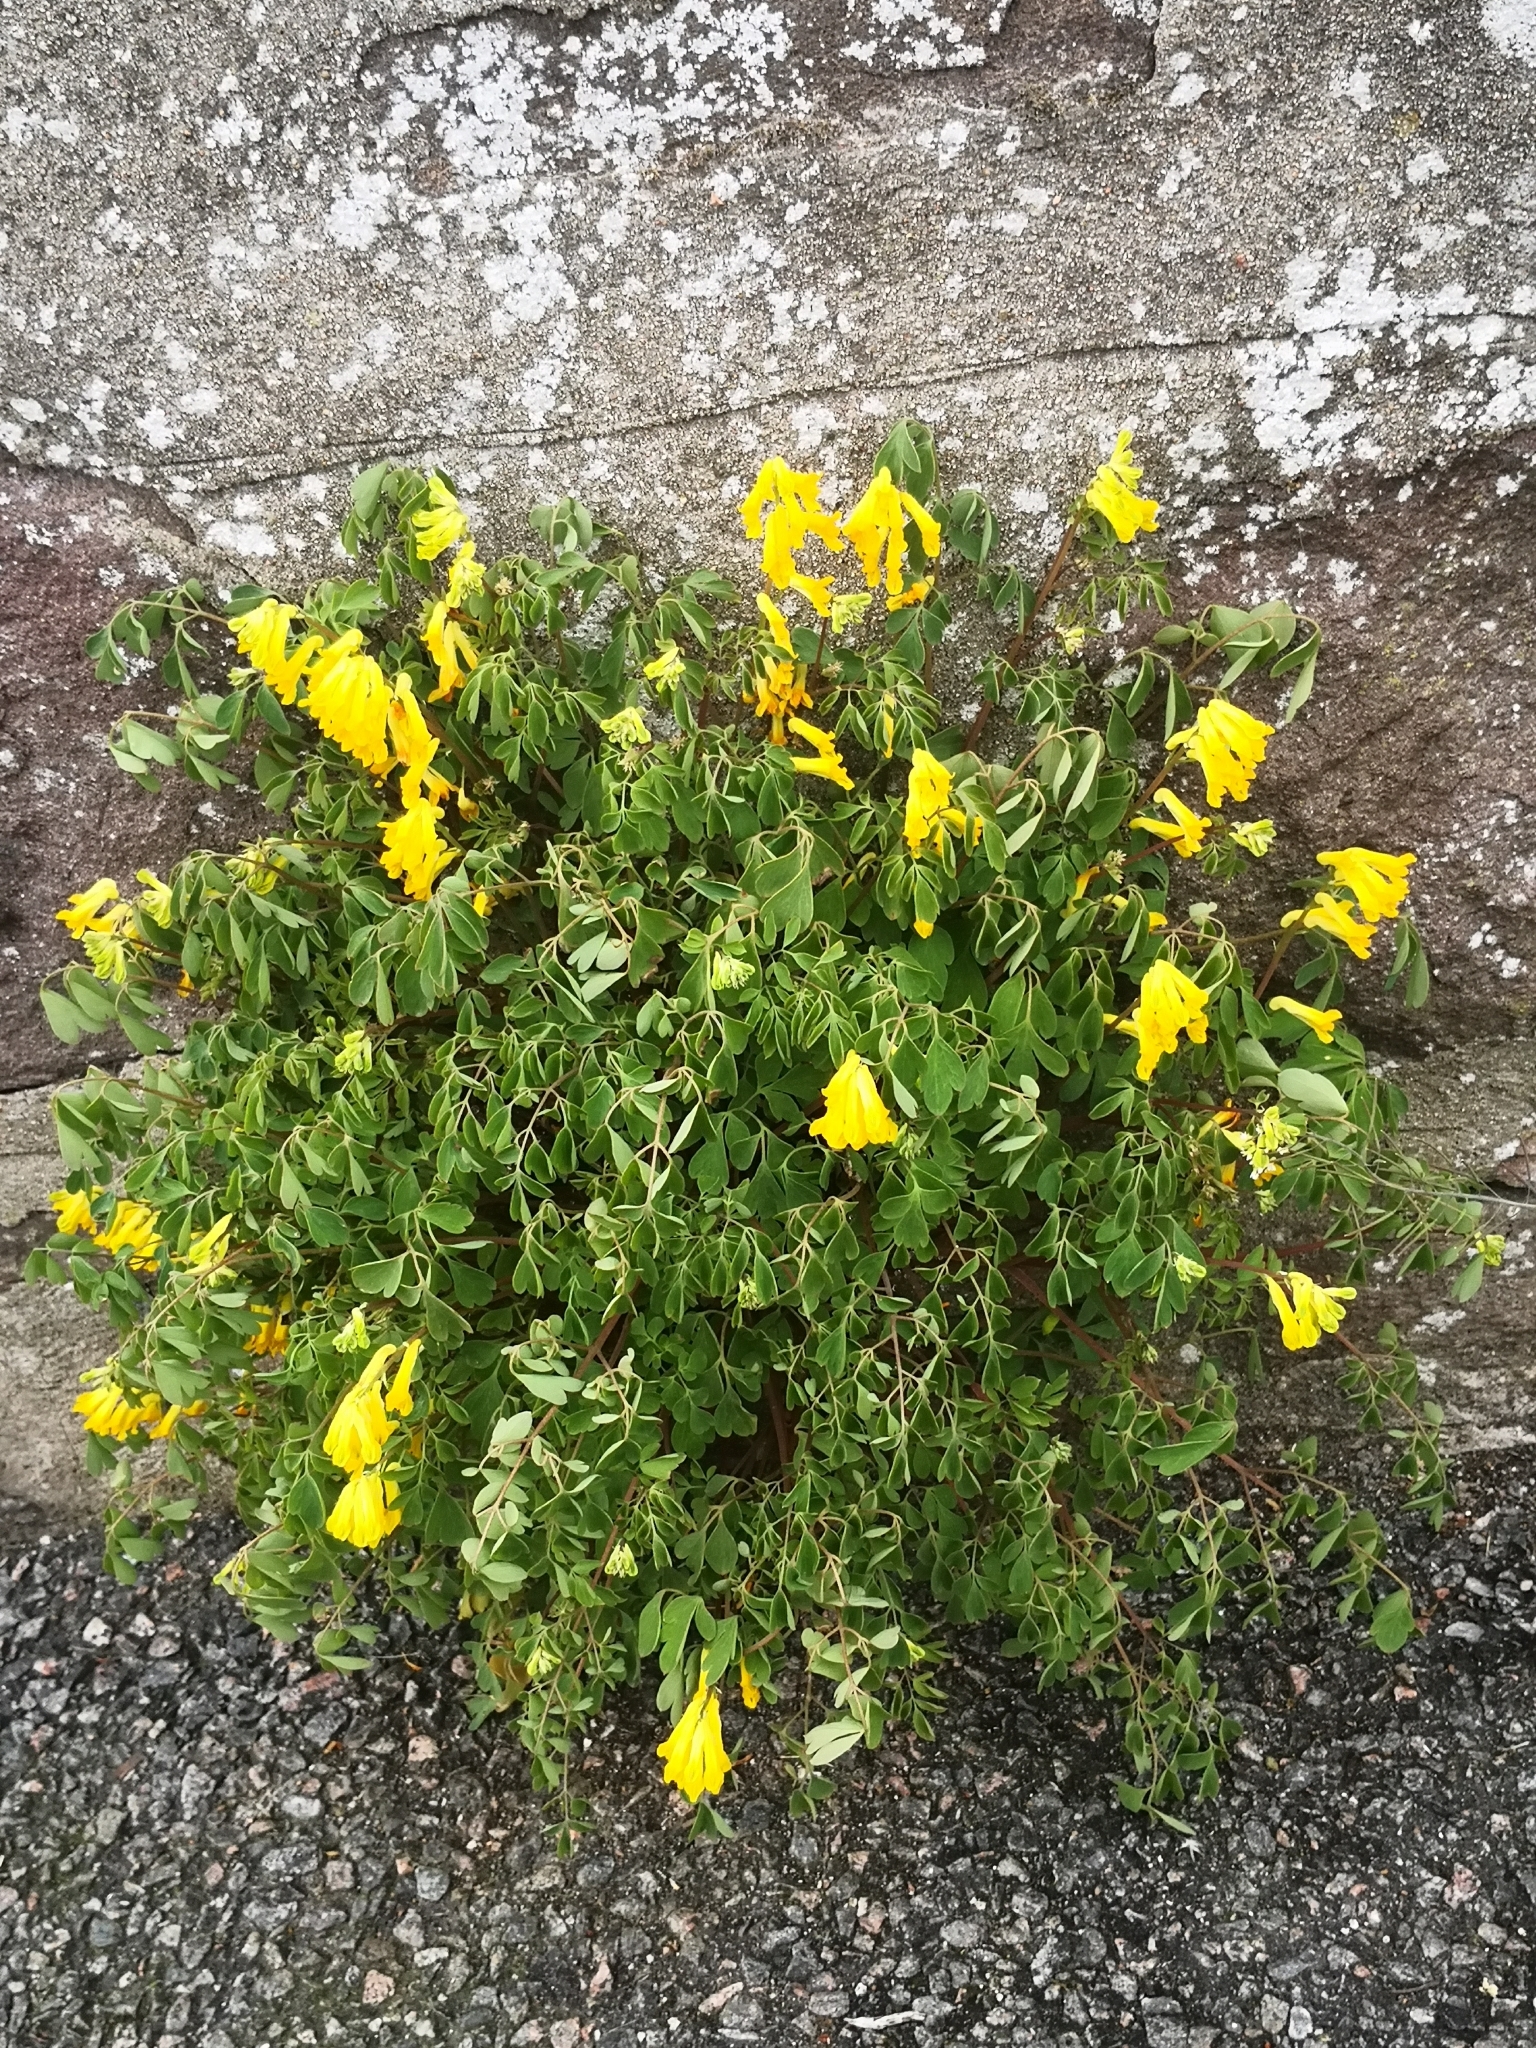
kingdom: Plantae
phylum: Tracheophyta
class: Magnoliopsida
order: Ranunculales
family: Papaveraceae
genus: Pseudofumaria
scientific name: Pseudofumaria lutea
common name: Yellow corydalis
